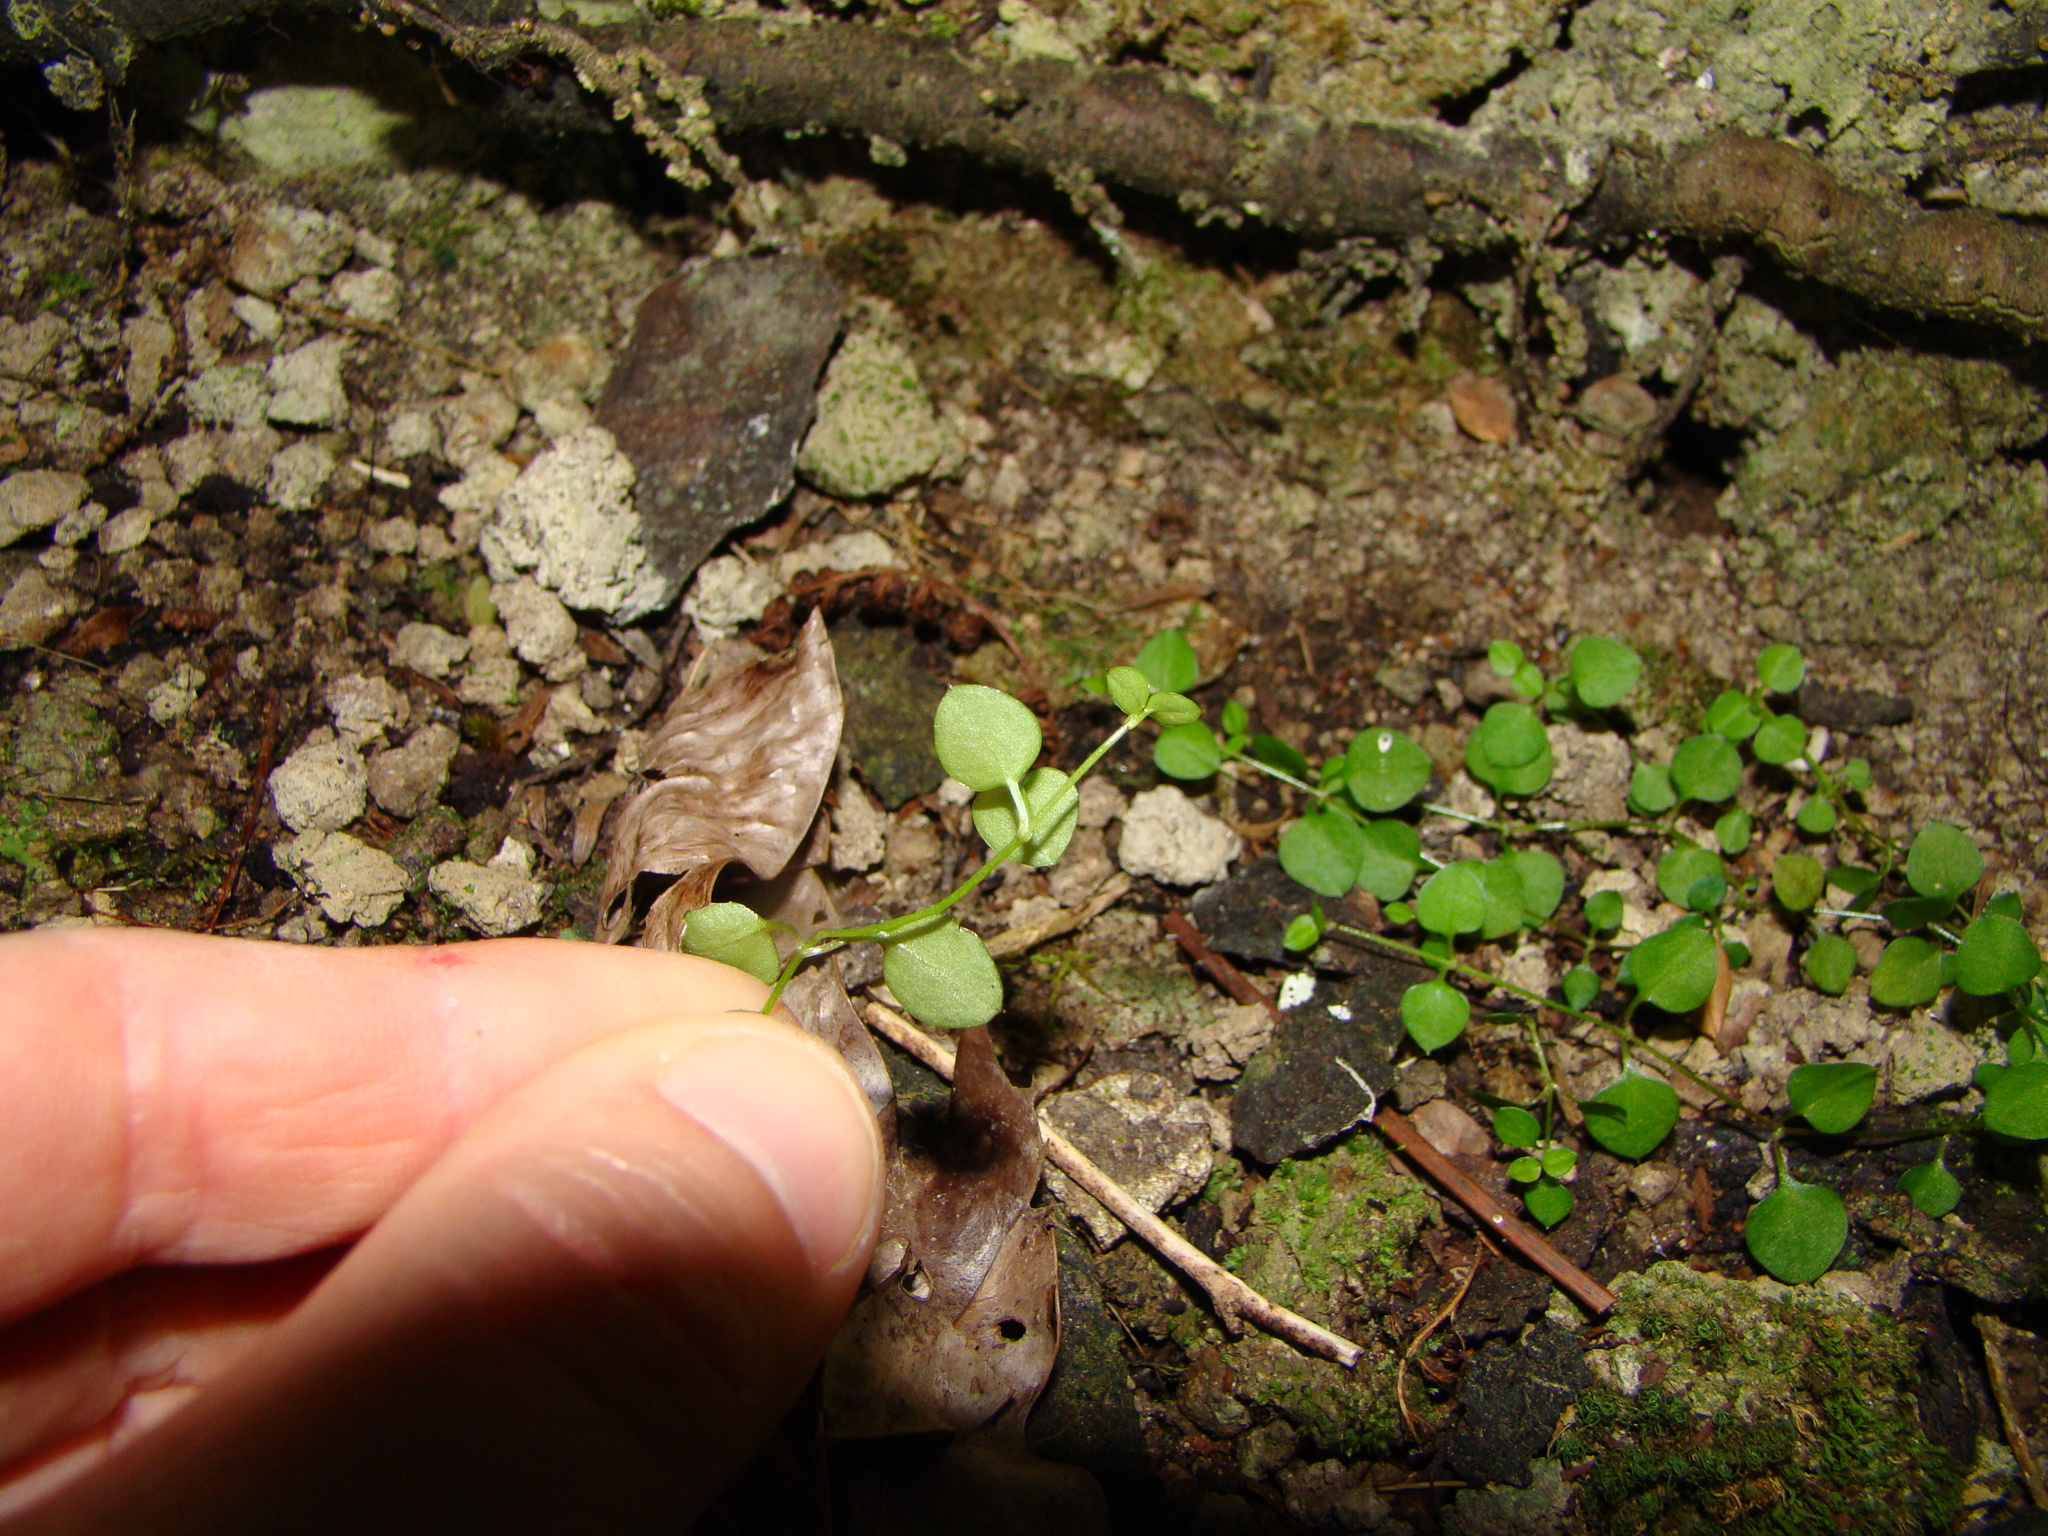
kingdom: Plantae
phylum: Tracheophyta
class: Magnoliopsida
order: Caryophyllales
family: Caryophyllaceae
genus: Stellaria
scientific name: Stellaria parviflora
